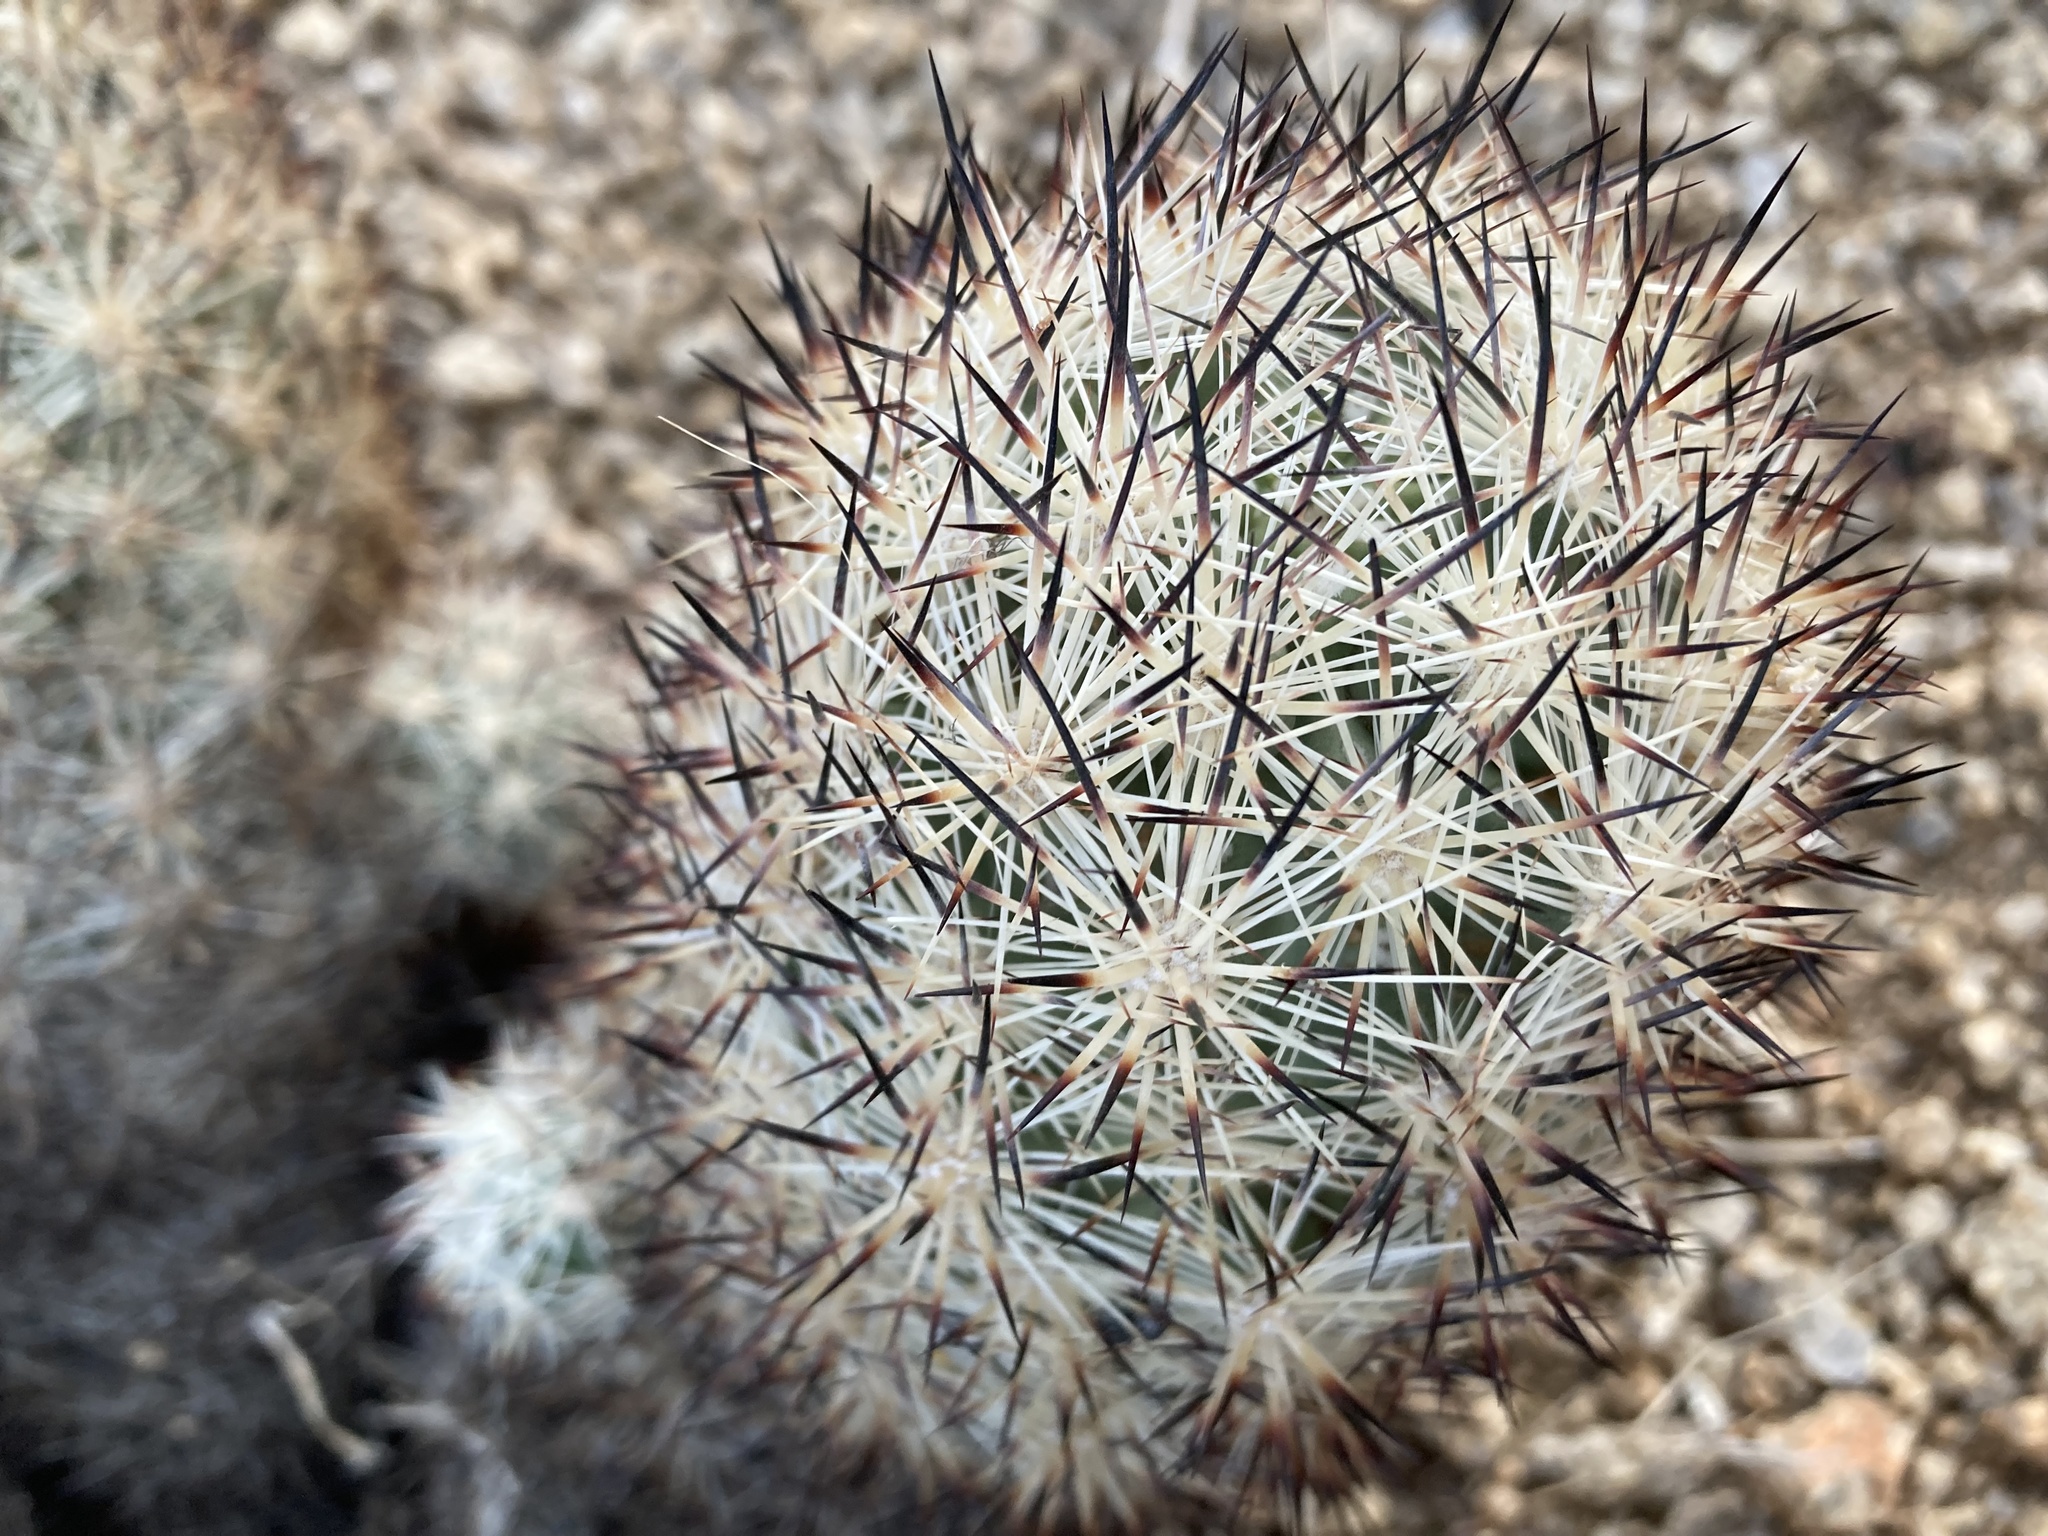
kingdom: Plantae
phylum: Tracheophyta
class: Magnoliopsida
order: Caryophyllales
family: Cactaceae
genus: Pelecyphora
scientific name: Pelecyphora alversonii
